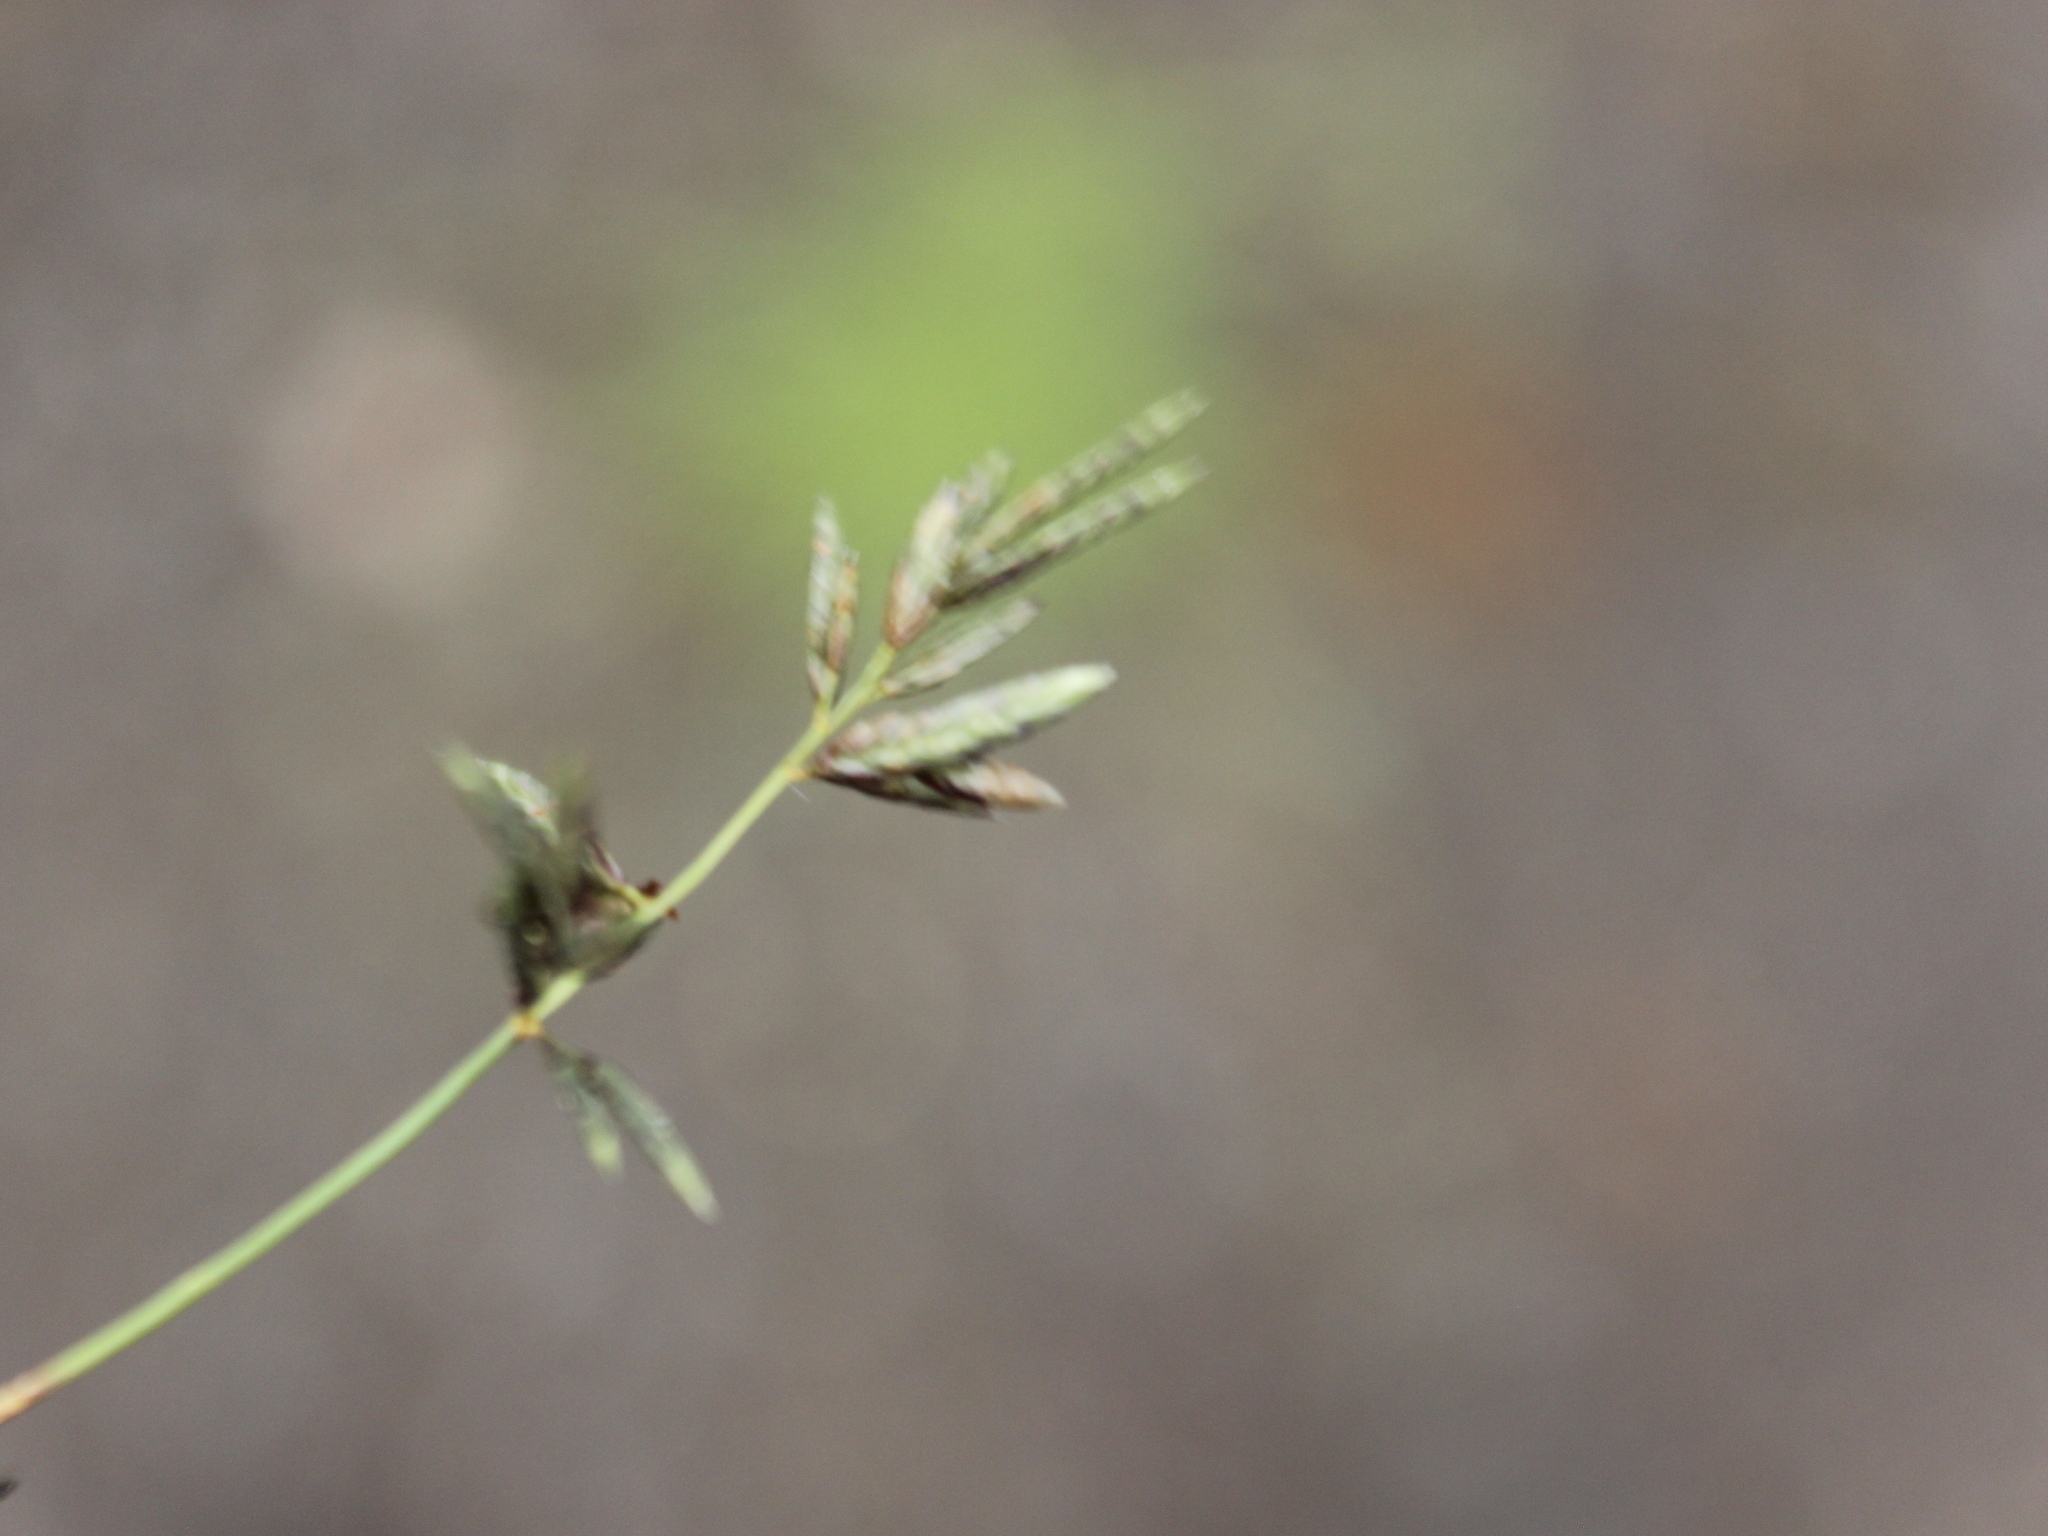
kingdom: Plantae
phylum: Tracheophyta
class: Liliopsida
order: Poales
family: Poaceae
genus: Eragrostis
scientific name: Eragrostis brownii
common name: Lovegrass
